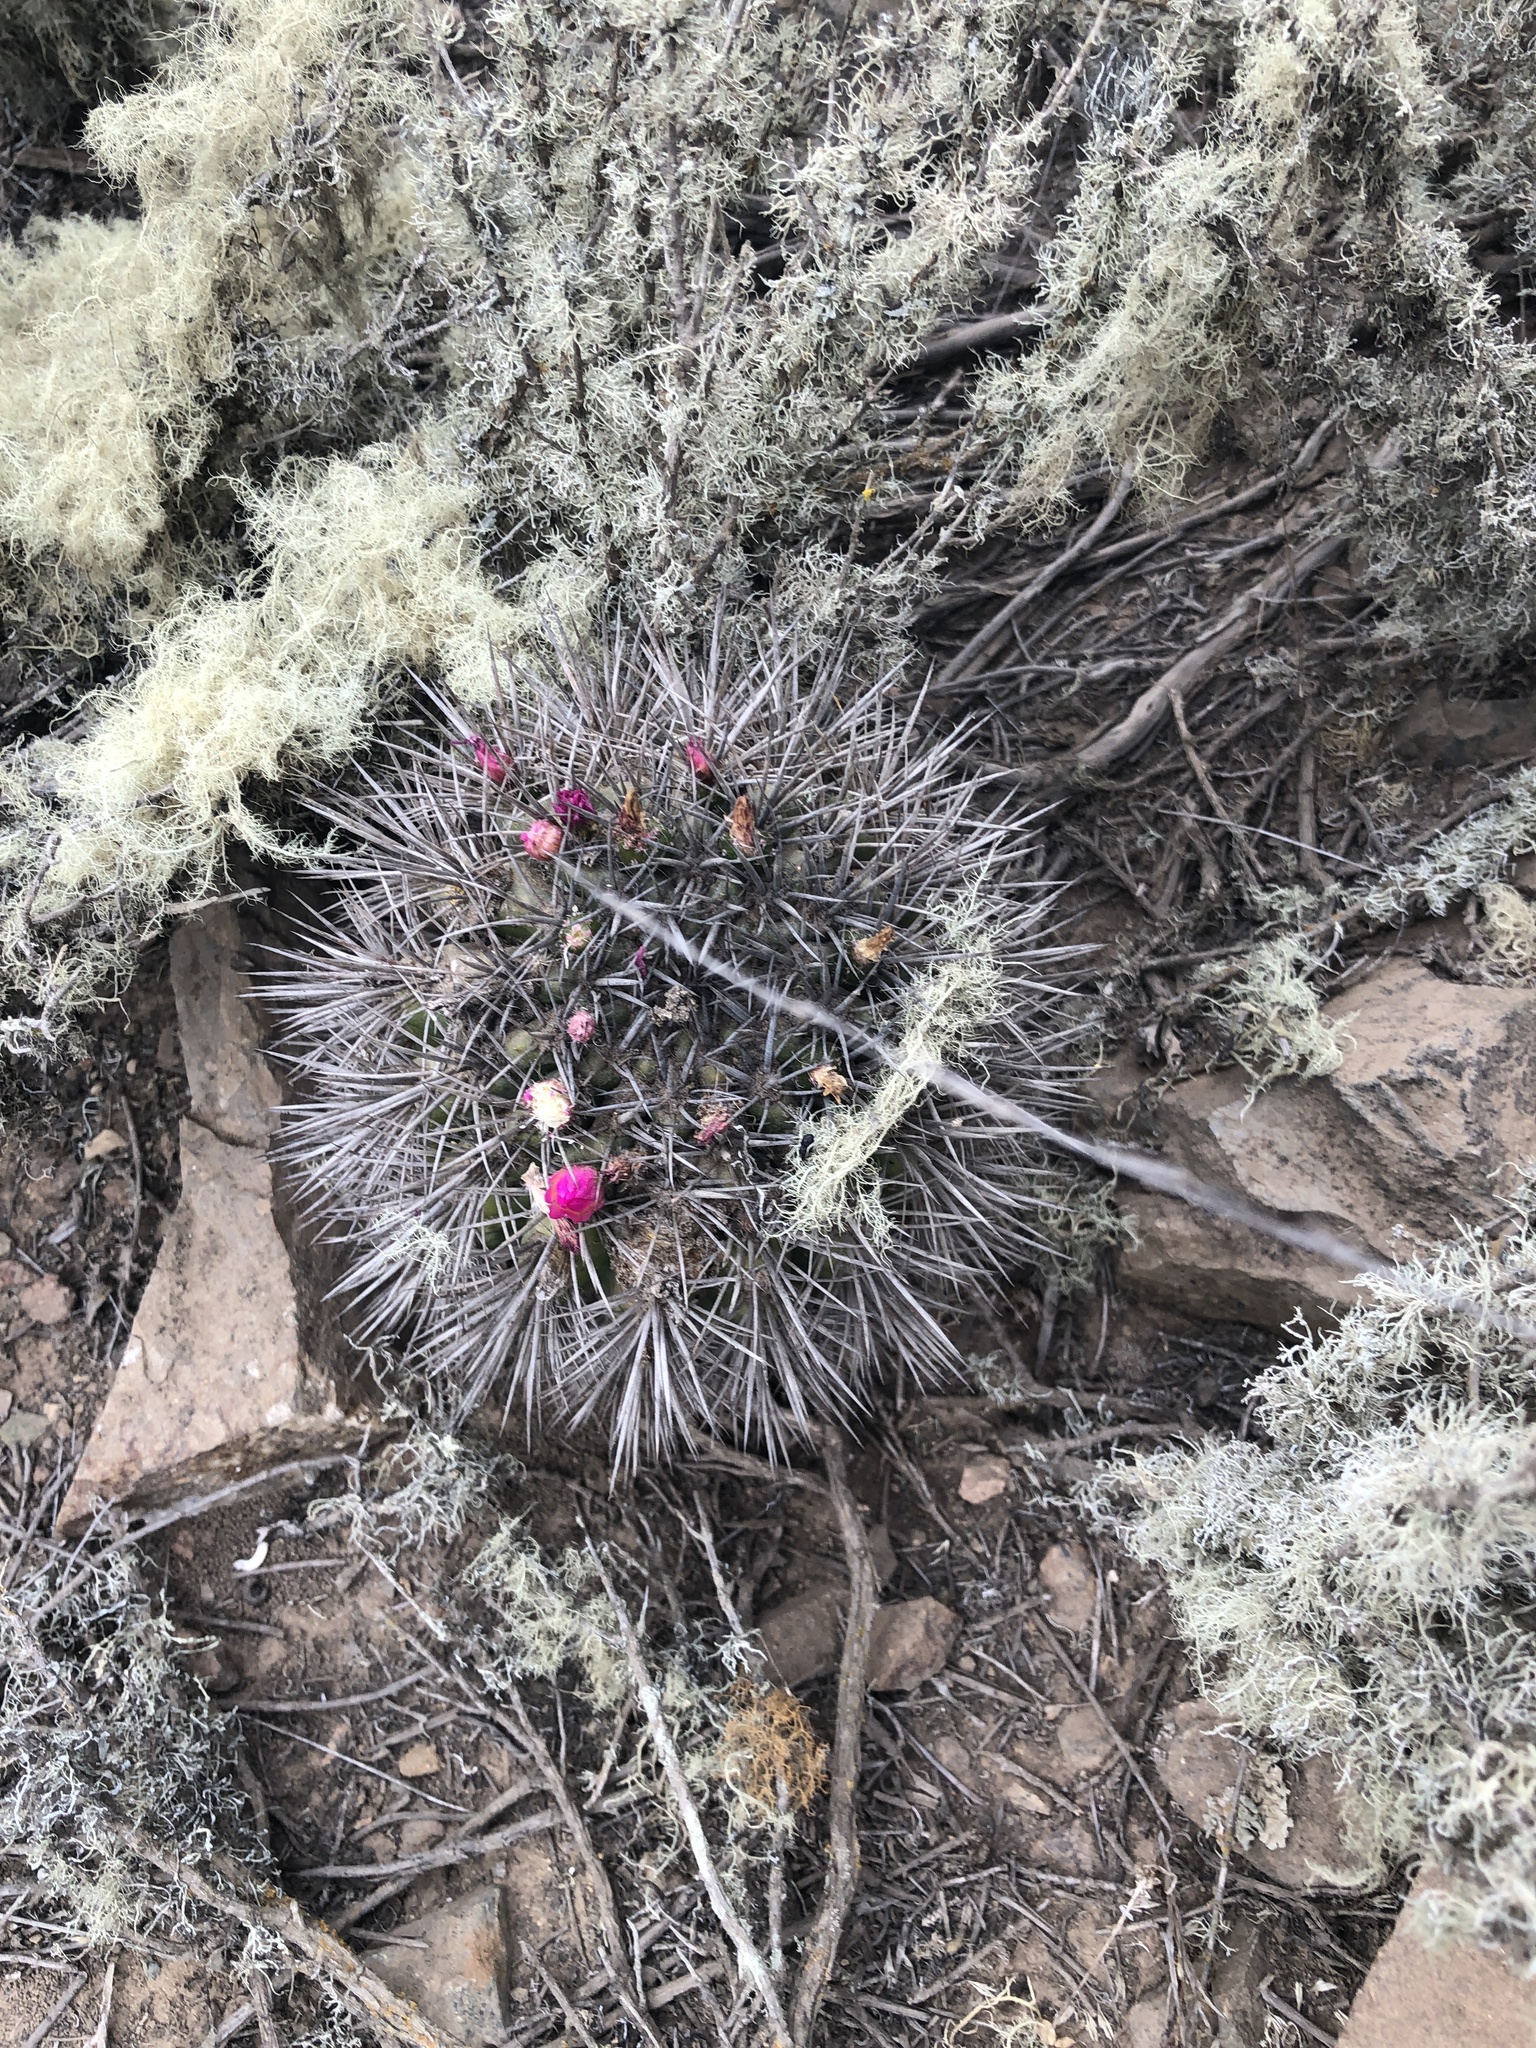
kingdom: Plantae
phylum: Tracheophyta
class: Magnoliopsida
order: Caryophyllales
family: Cactaceae
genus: Eriosyce
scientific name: Eriosyce nigrihorrida
